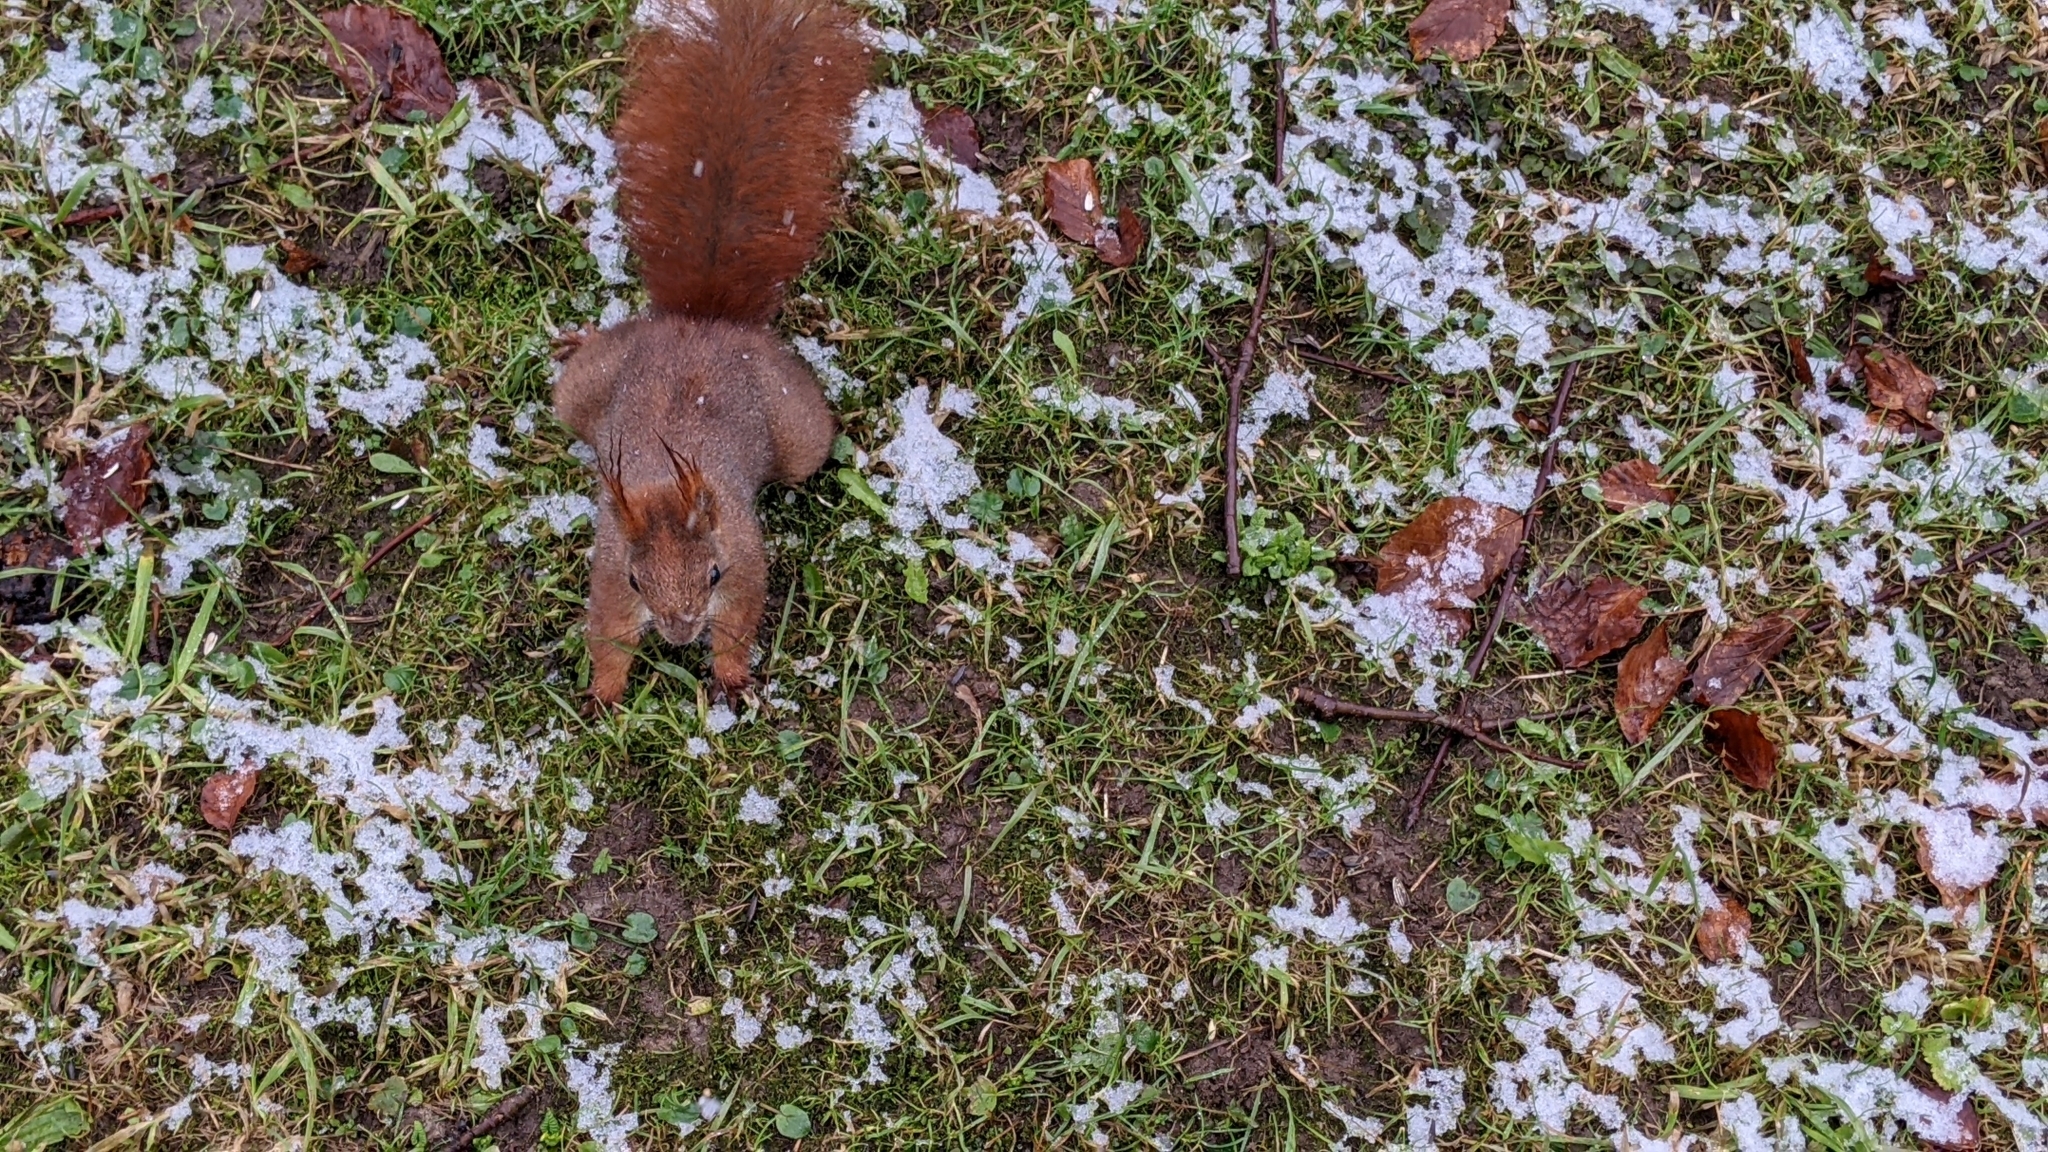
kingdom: Animalia
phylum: Chordata
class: Mammalia
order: Rodentia
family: Sciuridae
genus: Sciurus
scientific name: Sciurus vulgaris
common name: Eurasian red squirrel
